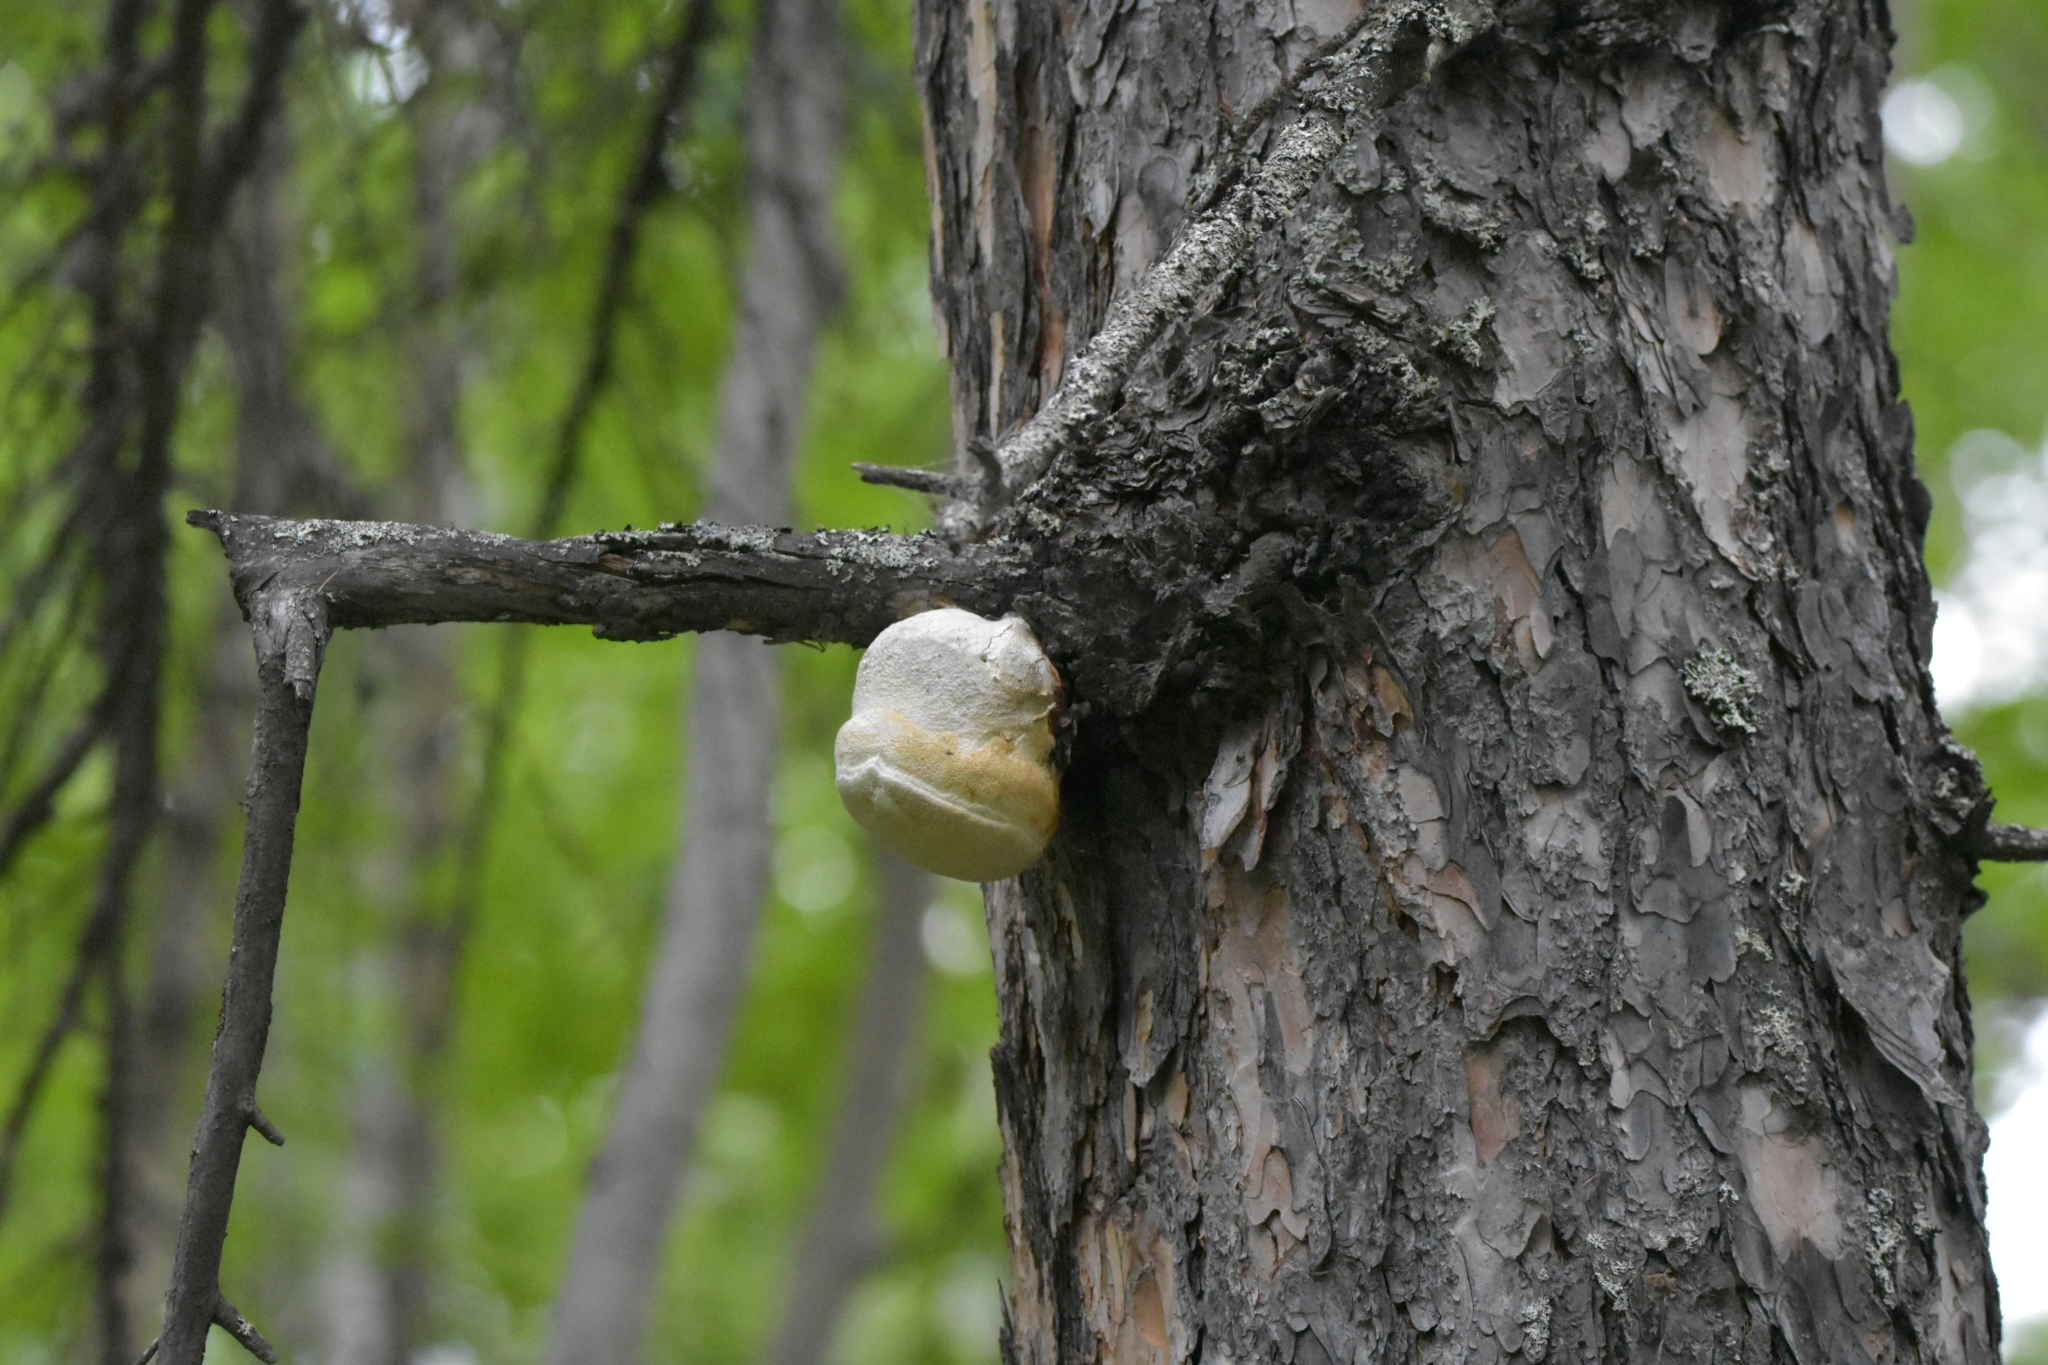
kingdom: Fungi
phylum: Basidiomycota
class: Agaricomycetes
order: Polyporales
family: Fomitopsidaceae
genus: Fomitopsis
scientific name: Fomitopsis officinalis
